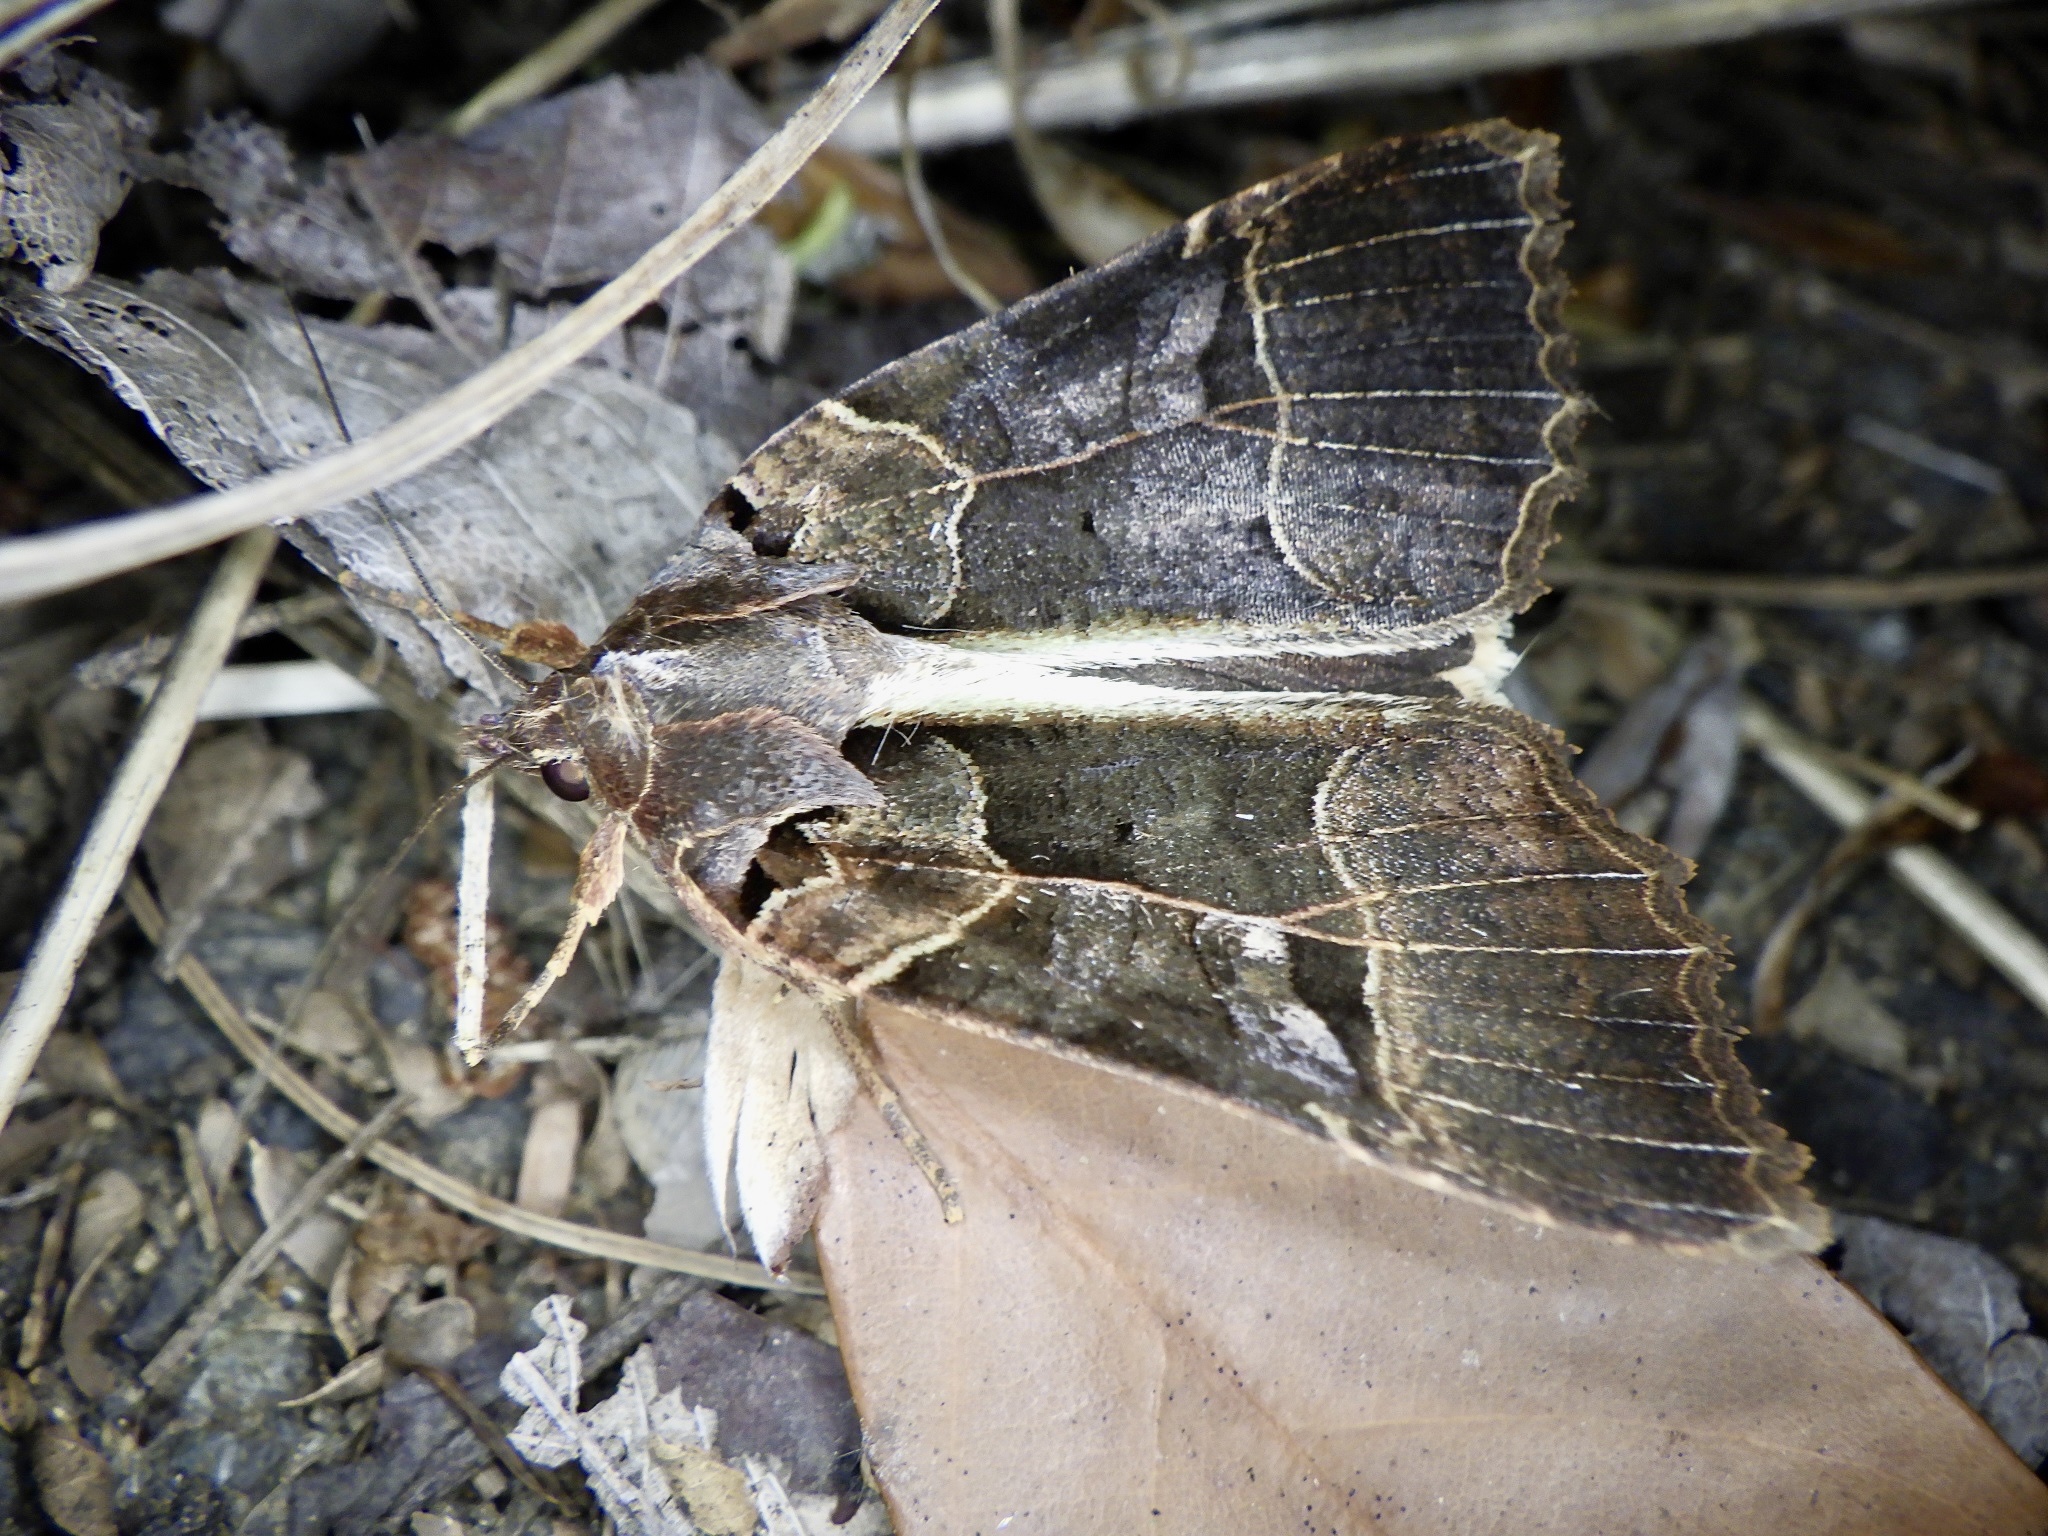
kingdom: Animalia
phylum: Arthropoda
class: Insecta
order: Lepidoptera
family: Noctuidae
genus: Orthogonia
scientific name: Orthogonia sera
